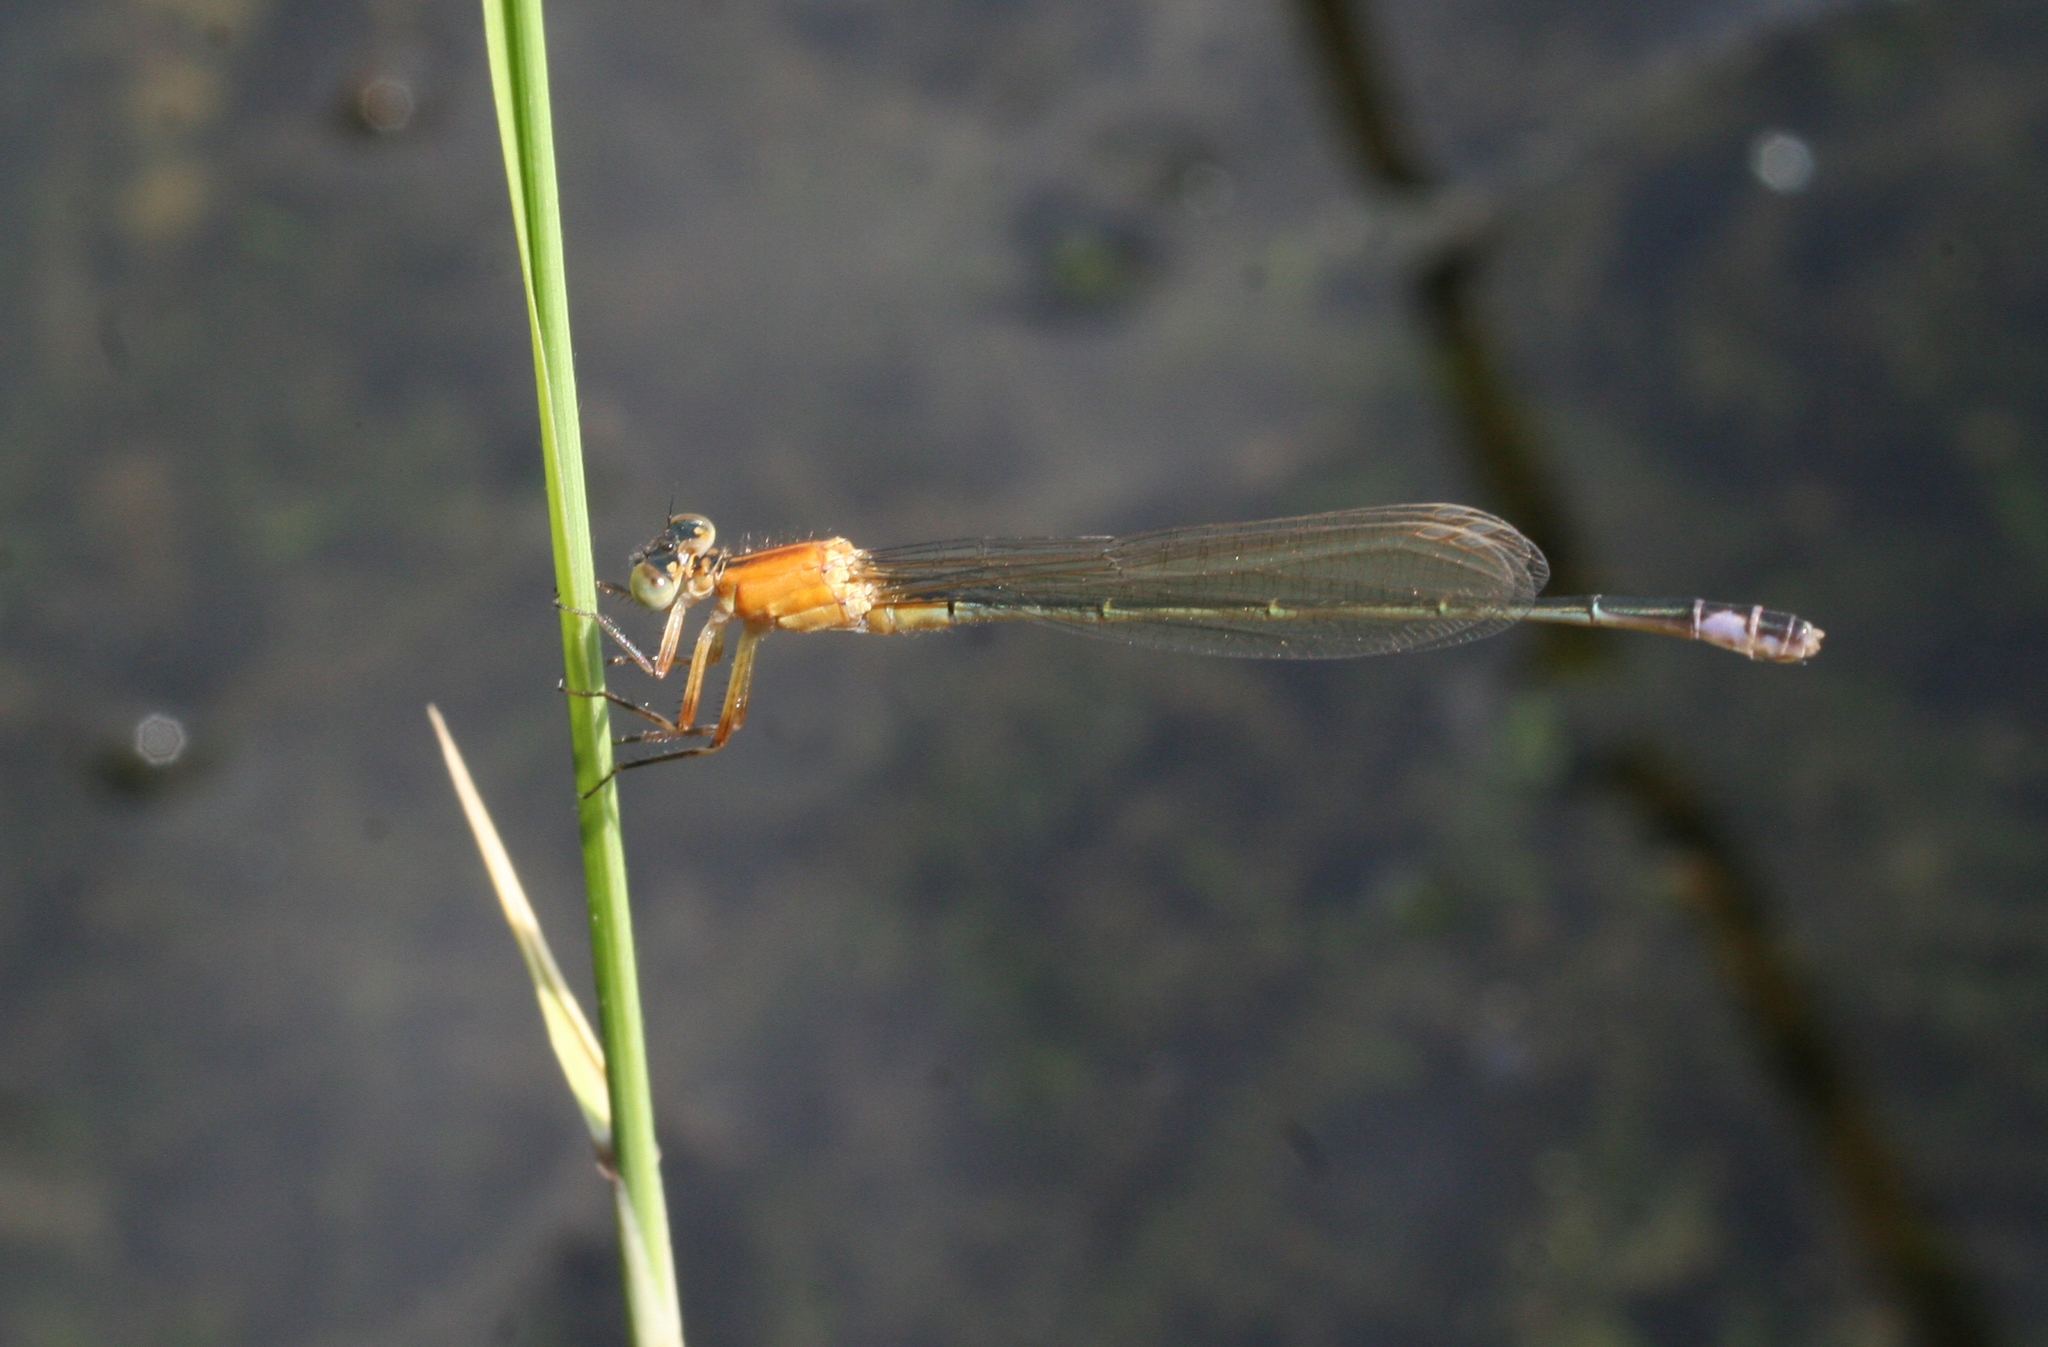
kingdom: Animalia
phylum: Arthropoda
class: Insecta
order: Odonata
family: Coenagrionidae
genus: Ischnura
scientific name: Ischnura aralensis
